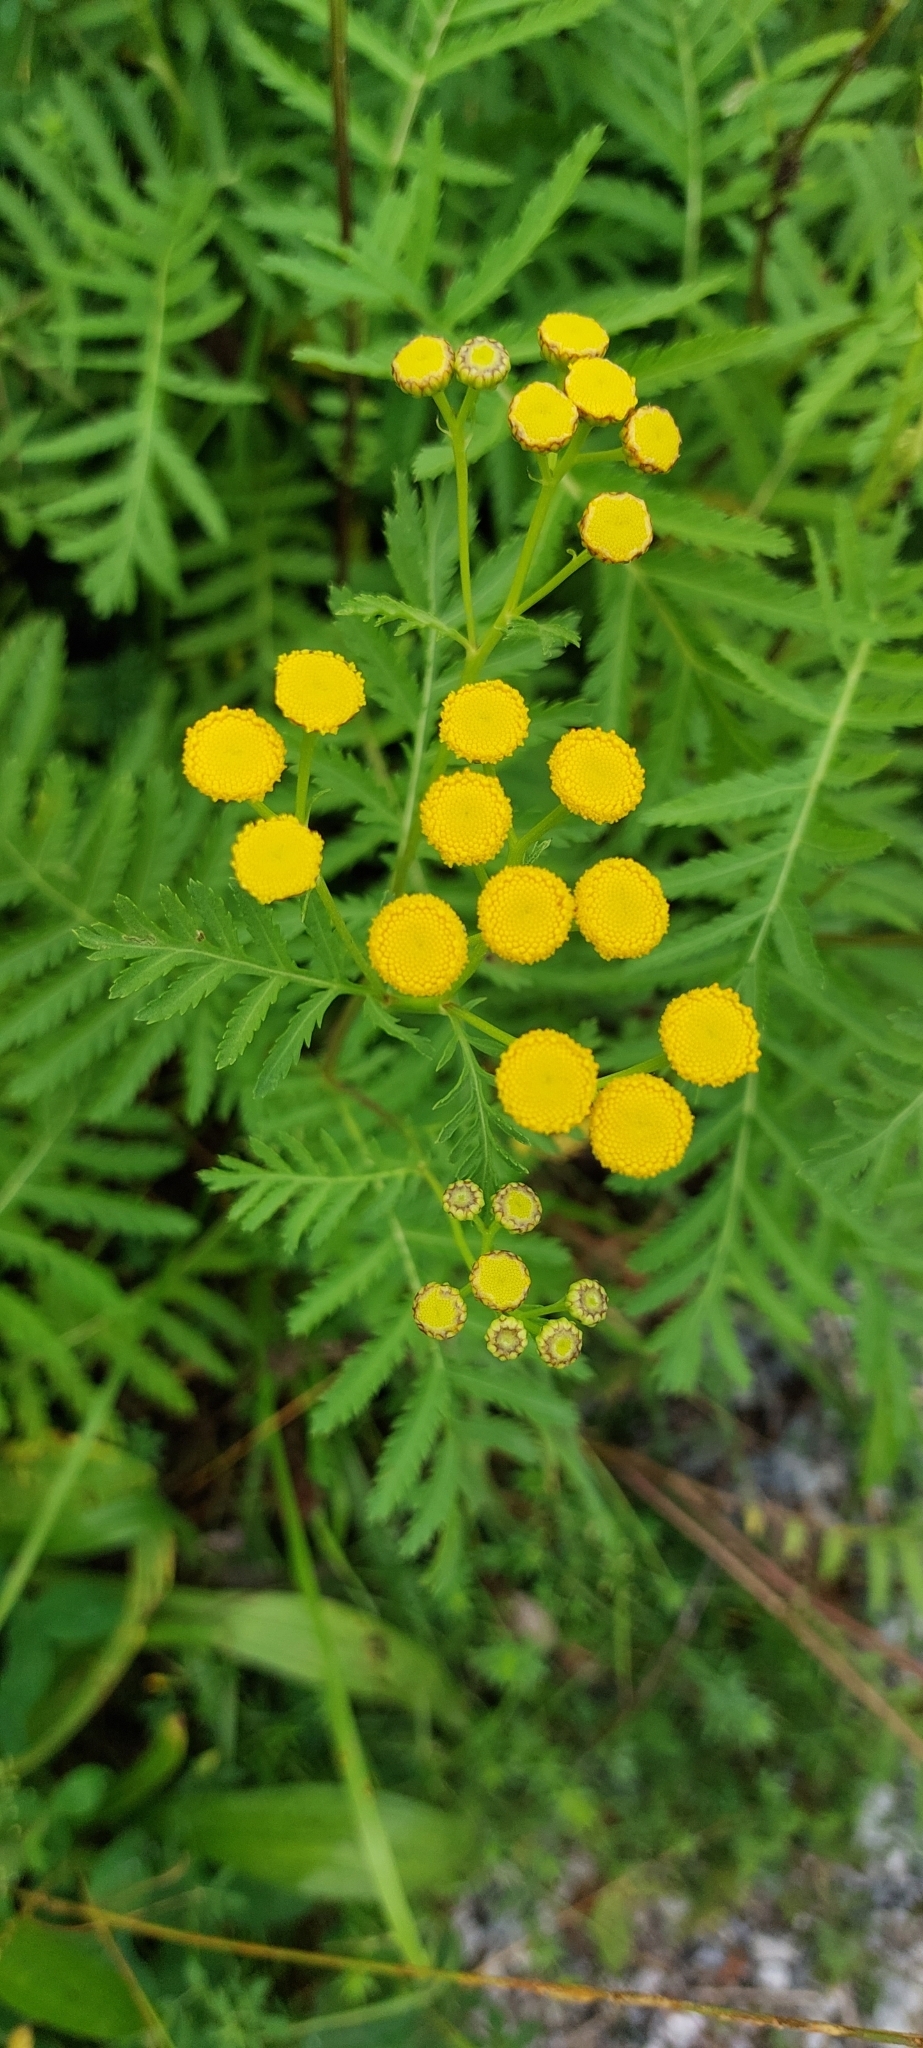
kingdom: Plantae
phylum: Tracheophyta
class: Magnoliopsida
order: Asterales
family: Asteraceae
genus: Tanacetum
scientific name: Tanacetum vulgare
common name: Common tansy
